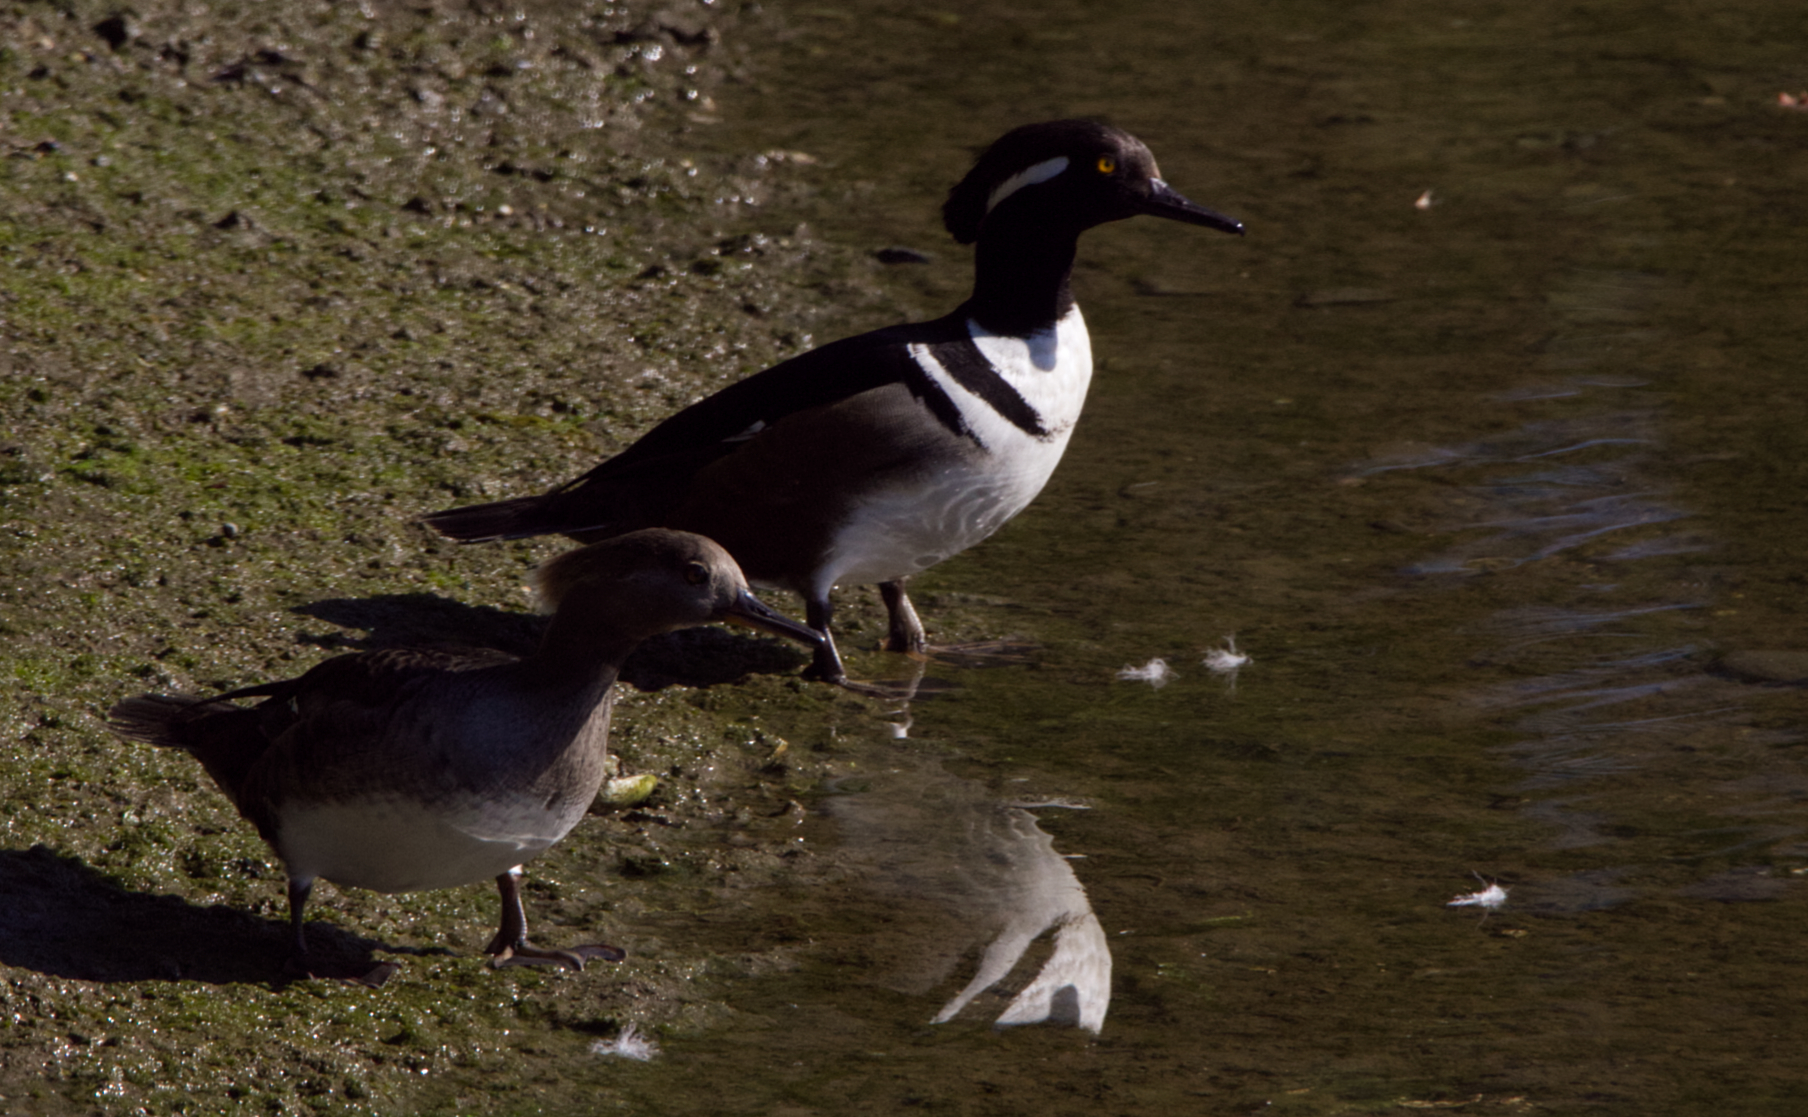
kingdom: Animalia
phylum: Chordata
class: Aves
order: Anseriformes
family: Anatidae
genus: Lophodytes
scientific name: Lophodytes cucullatus
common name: Hooded merganser
